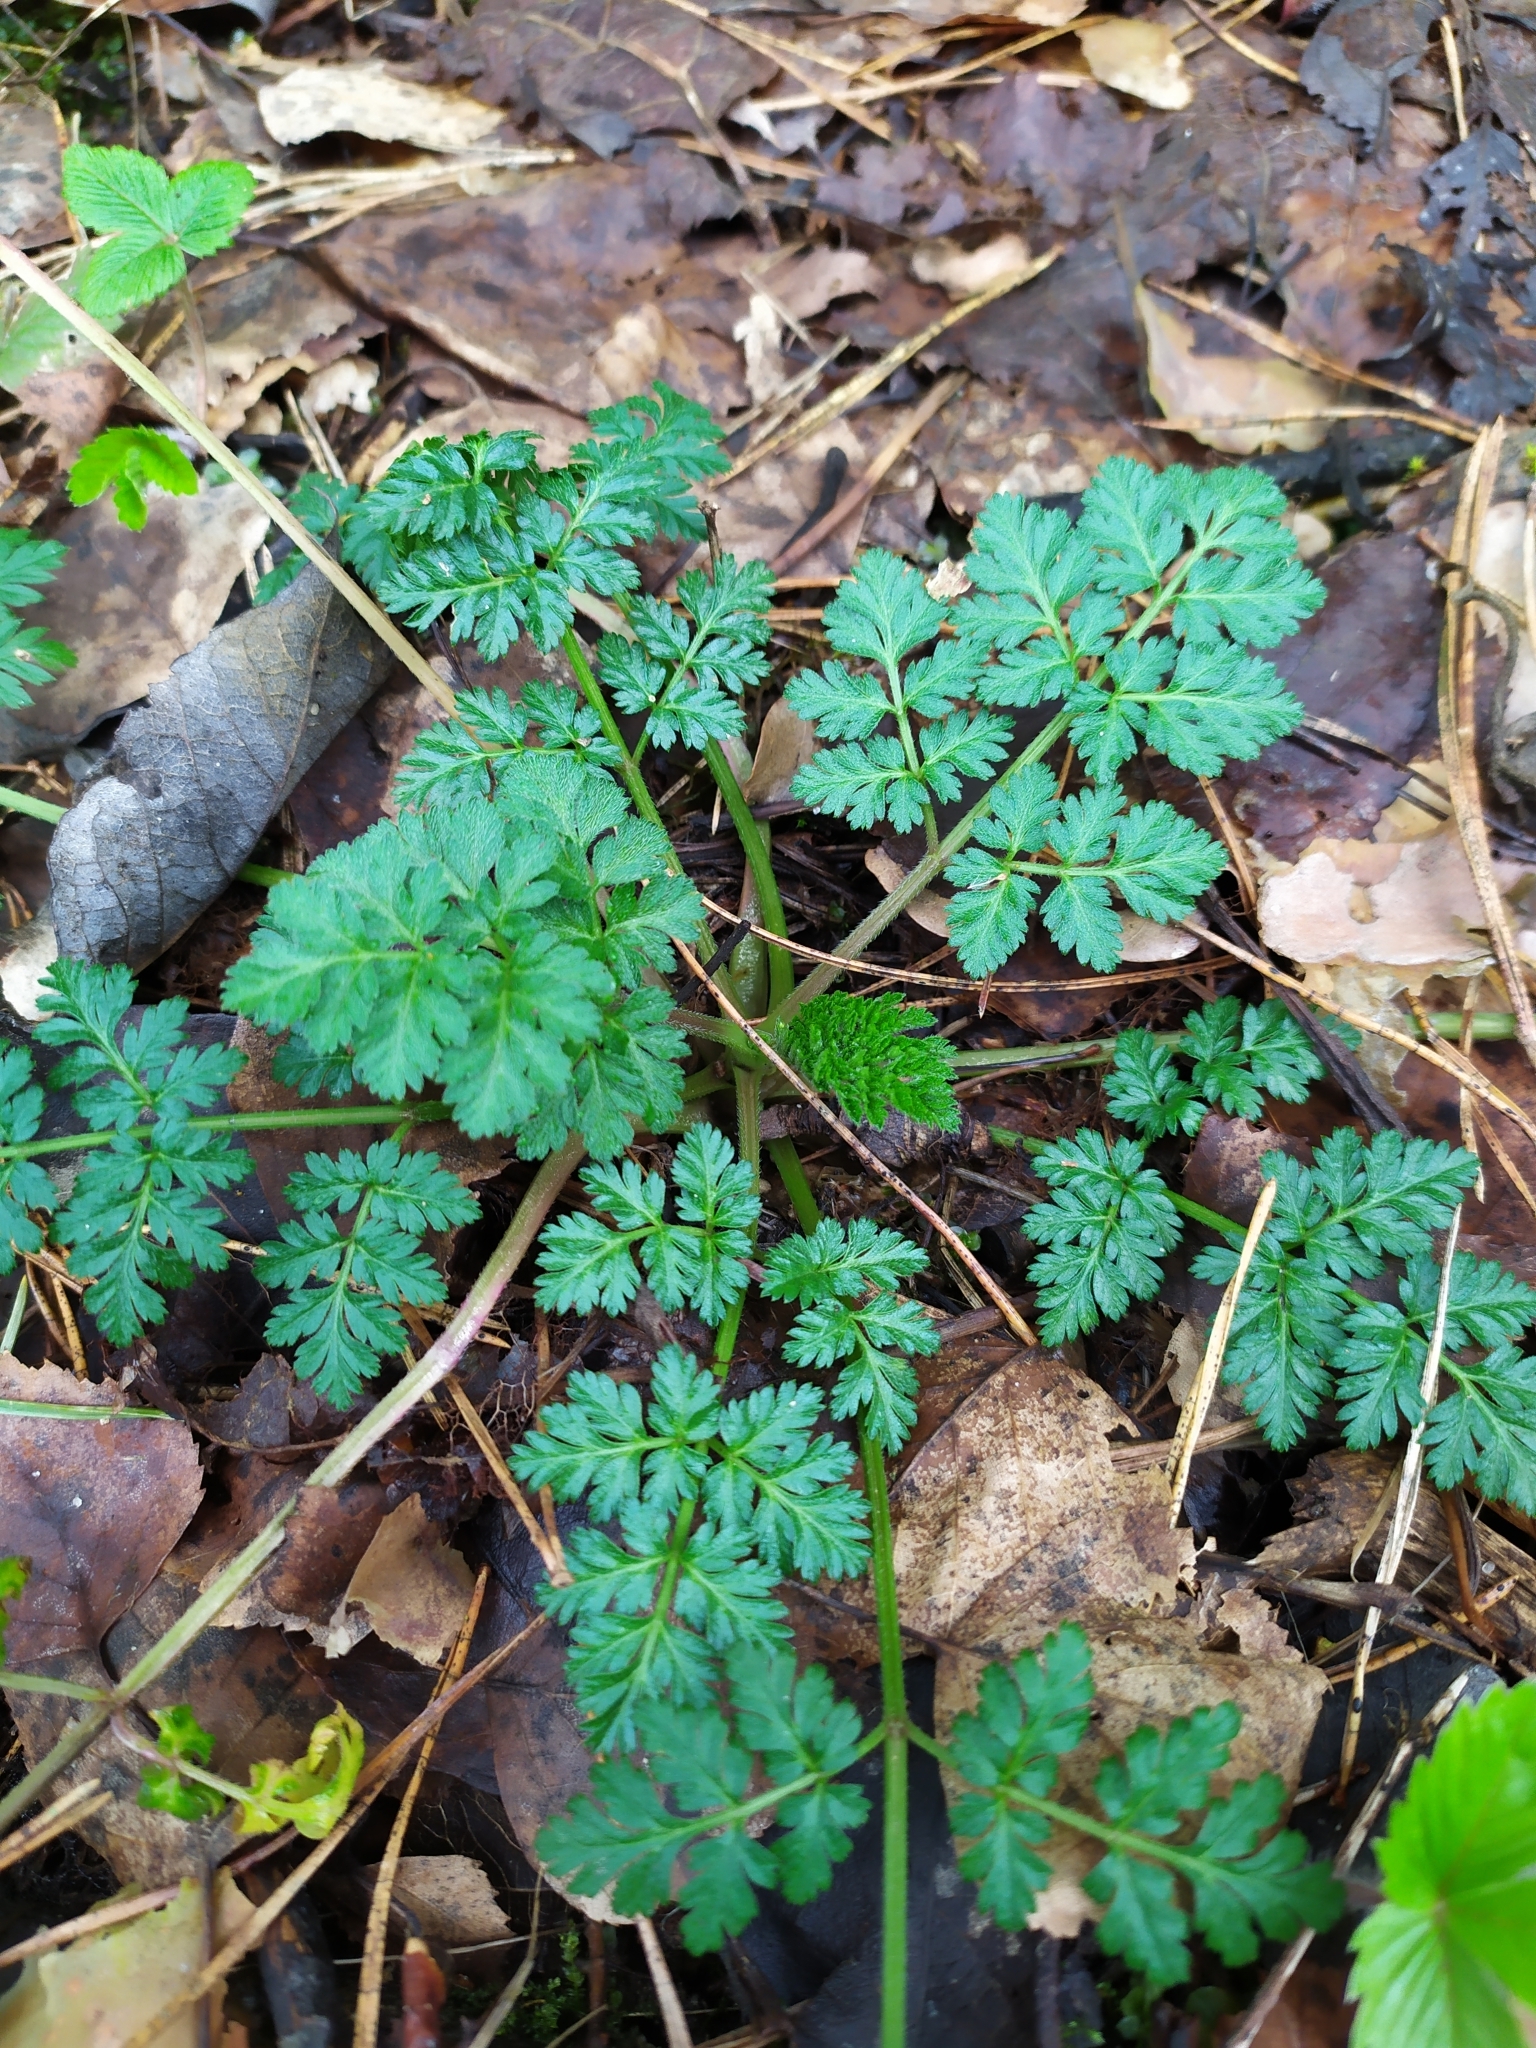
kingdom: Plantae
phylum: Tracheophyta
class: Magnoliopsida
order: Apiales
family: Apiaceae
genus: Anthriscus
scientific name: Anthriscus sylvestris
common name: Cow parsley
